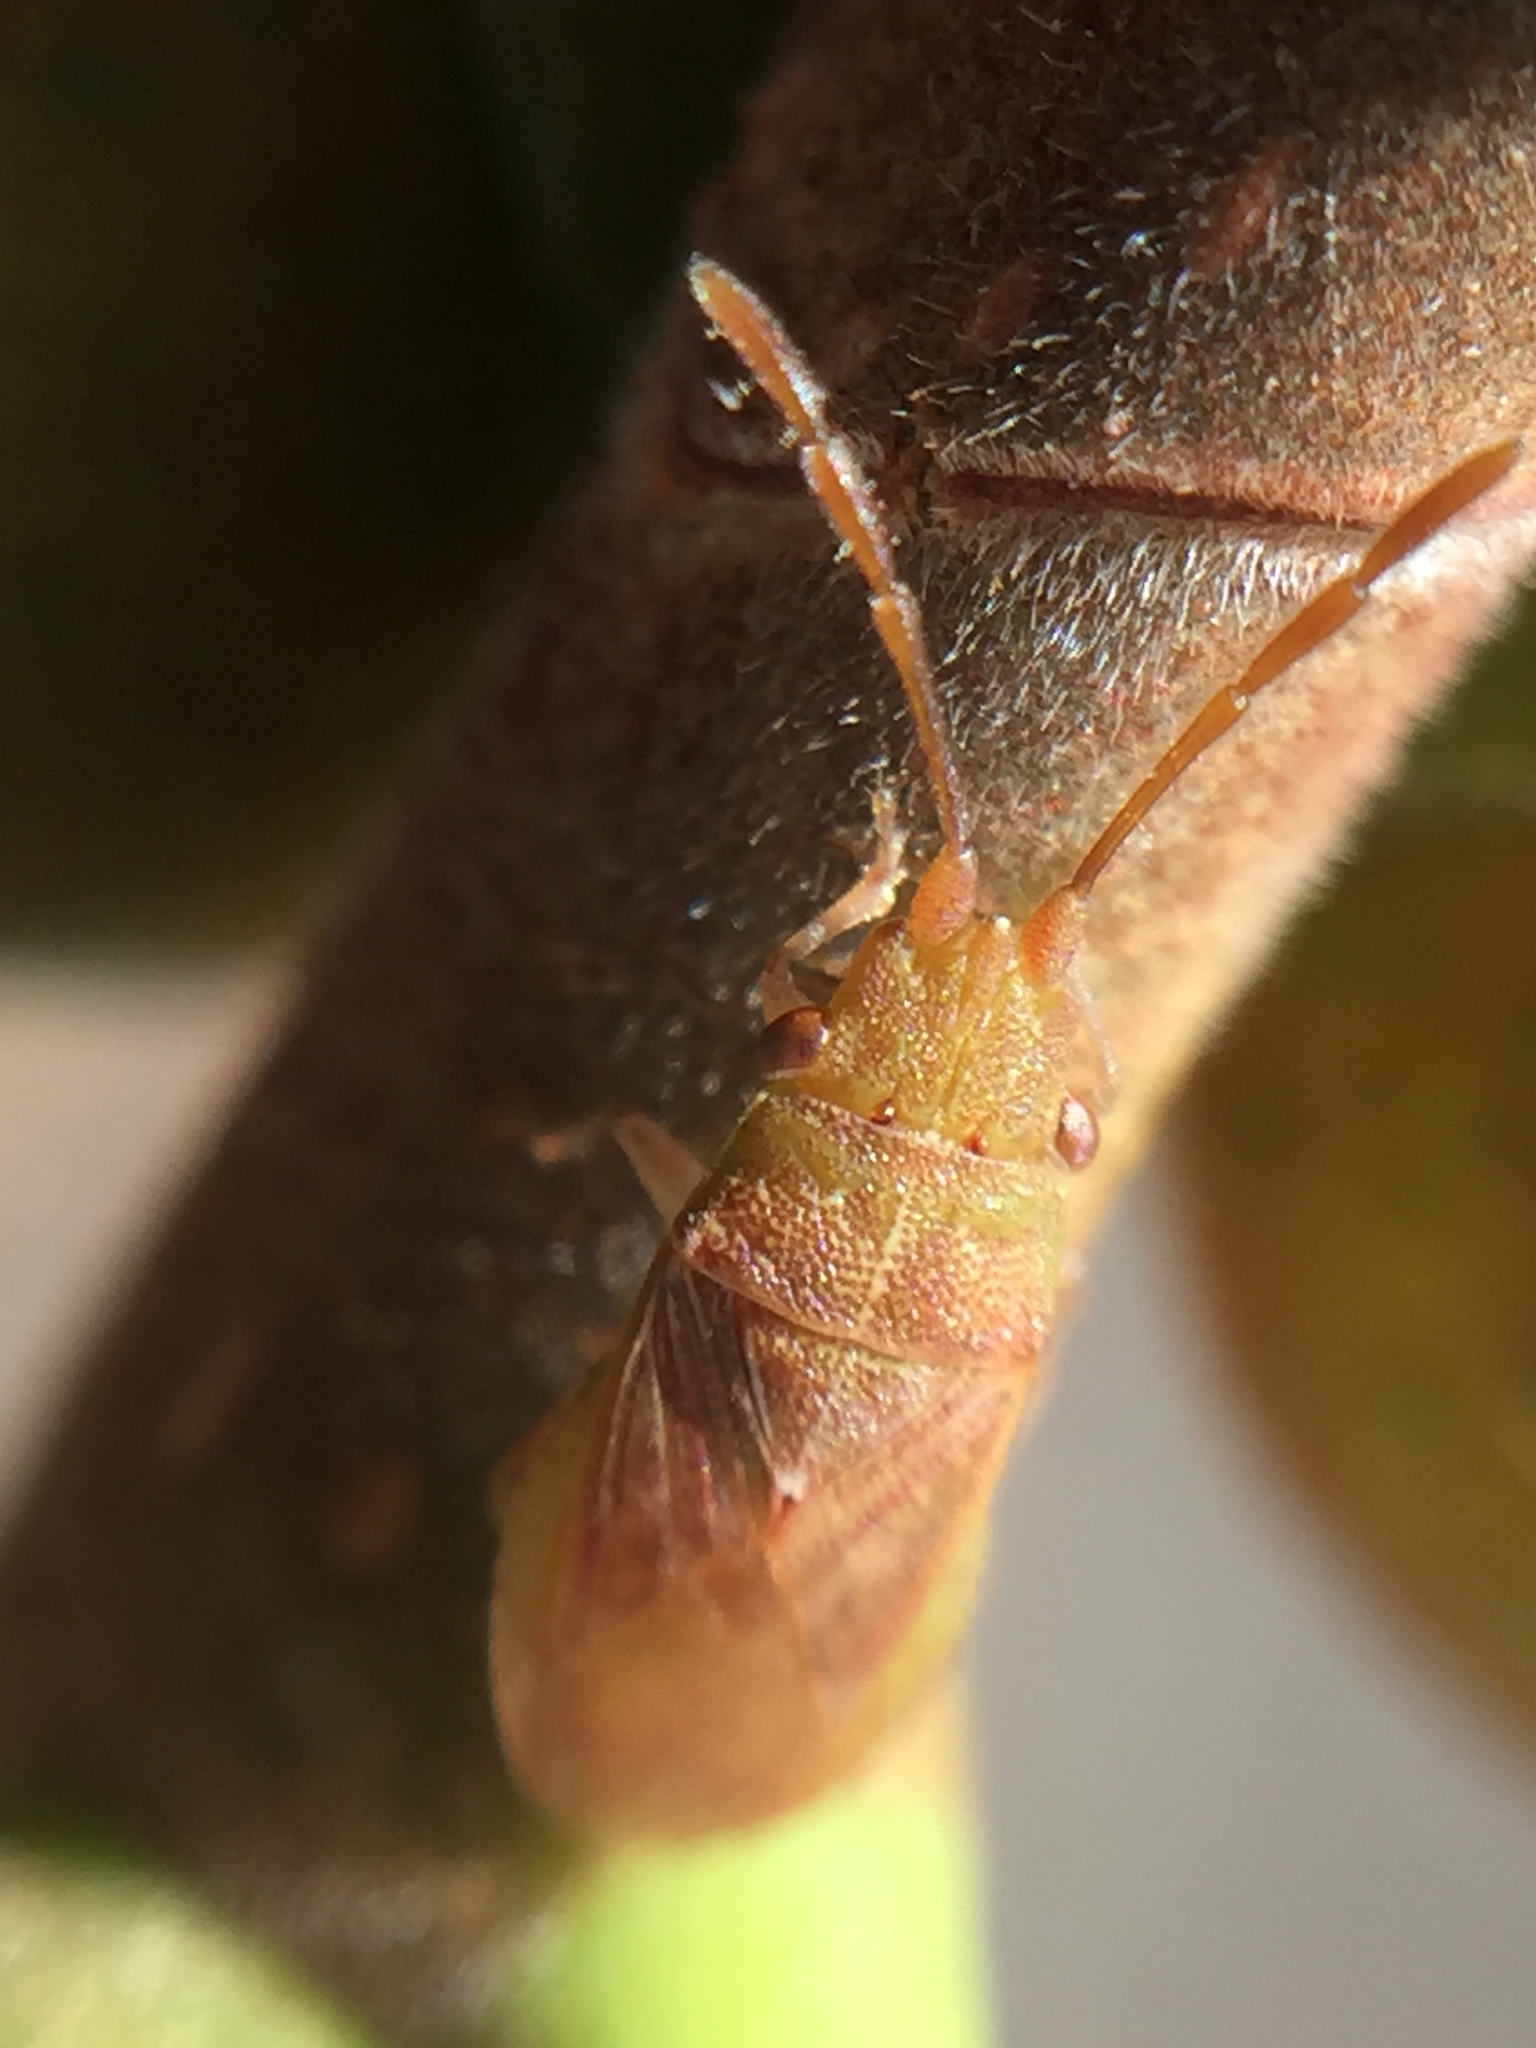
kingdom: Animalia
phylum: Arthropoda
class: Insecta
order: Hemiptera
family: Meschiidae
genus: Meschia
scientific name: Meschia barrowensis
